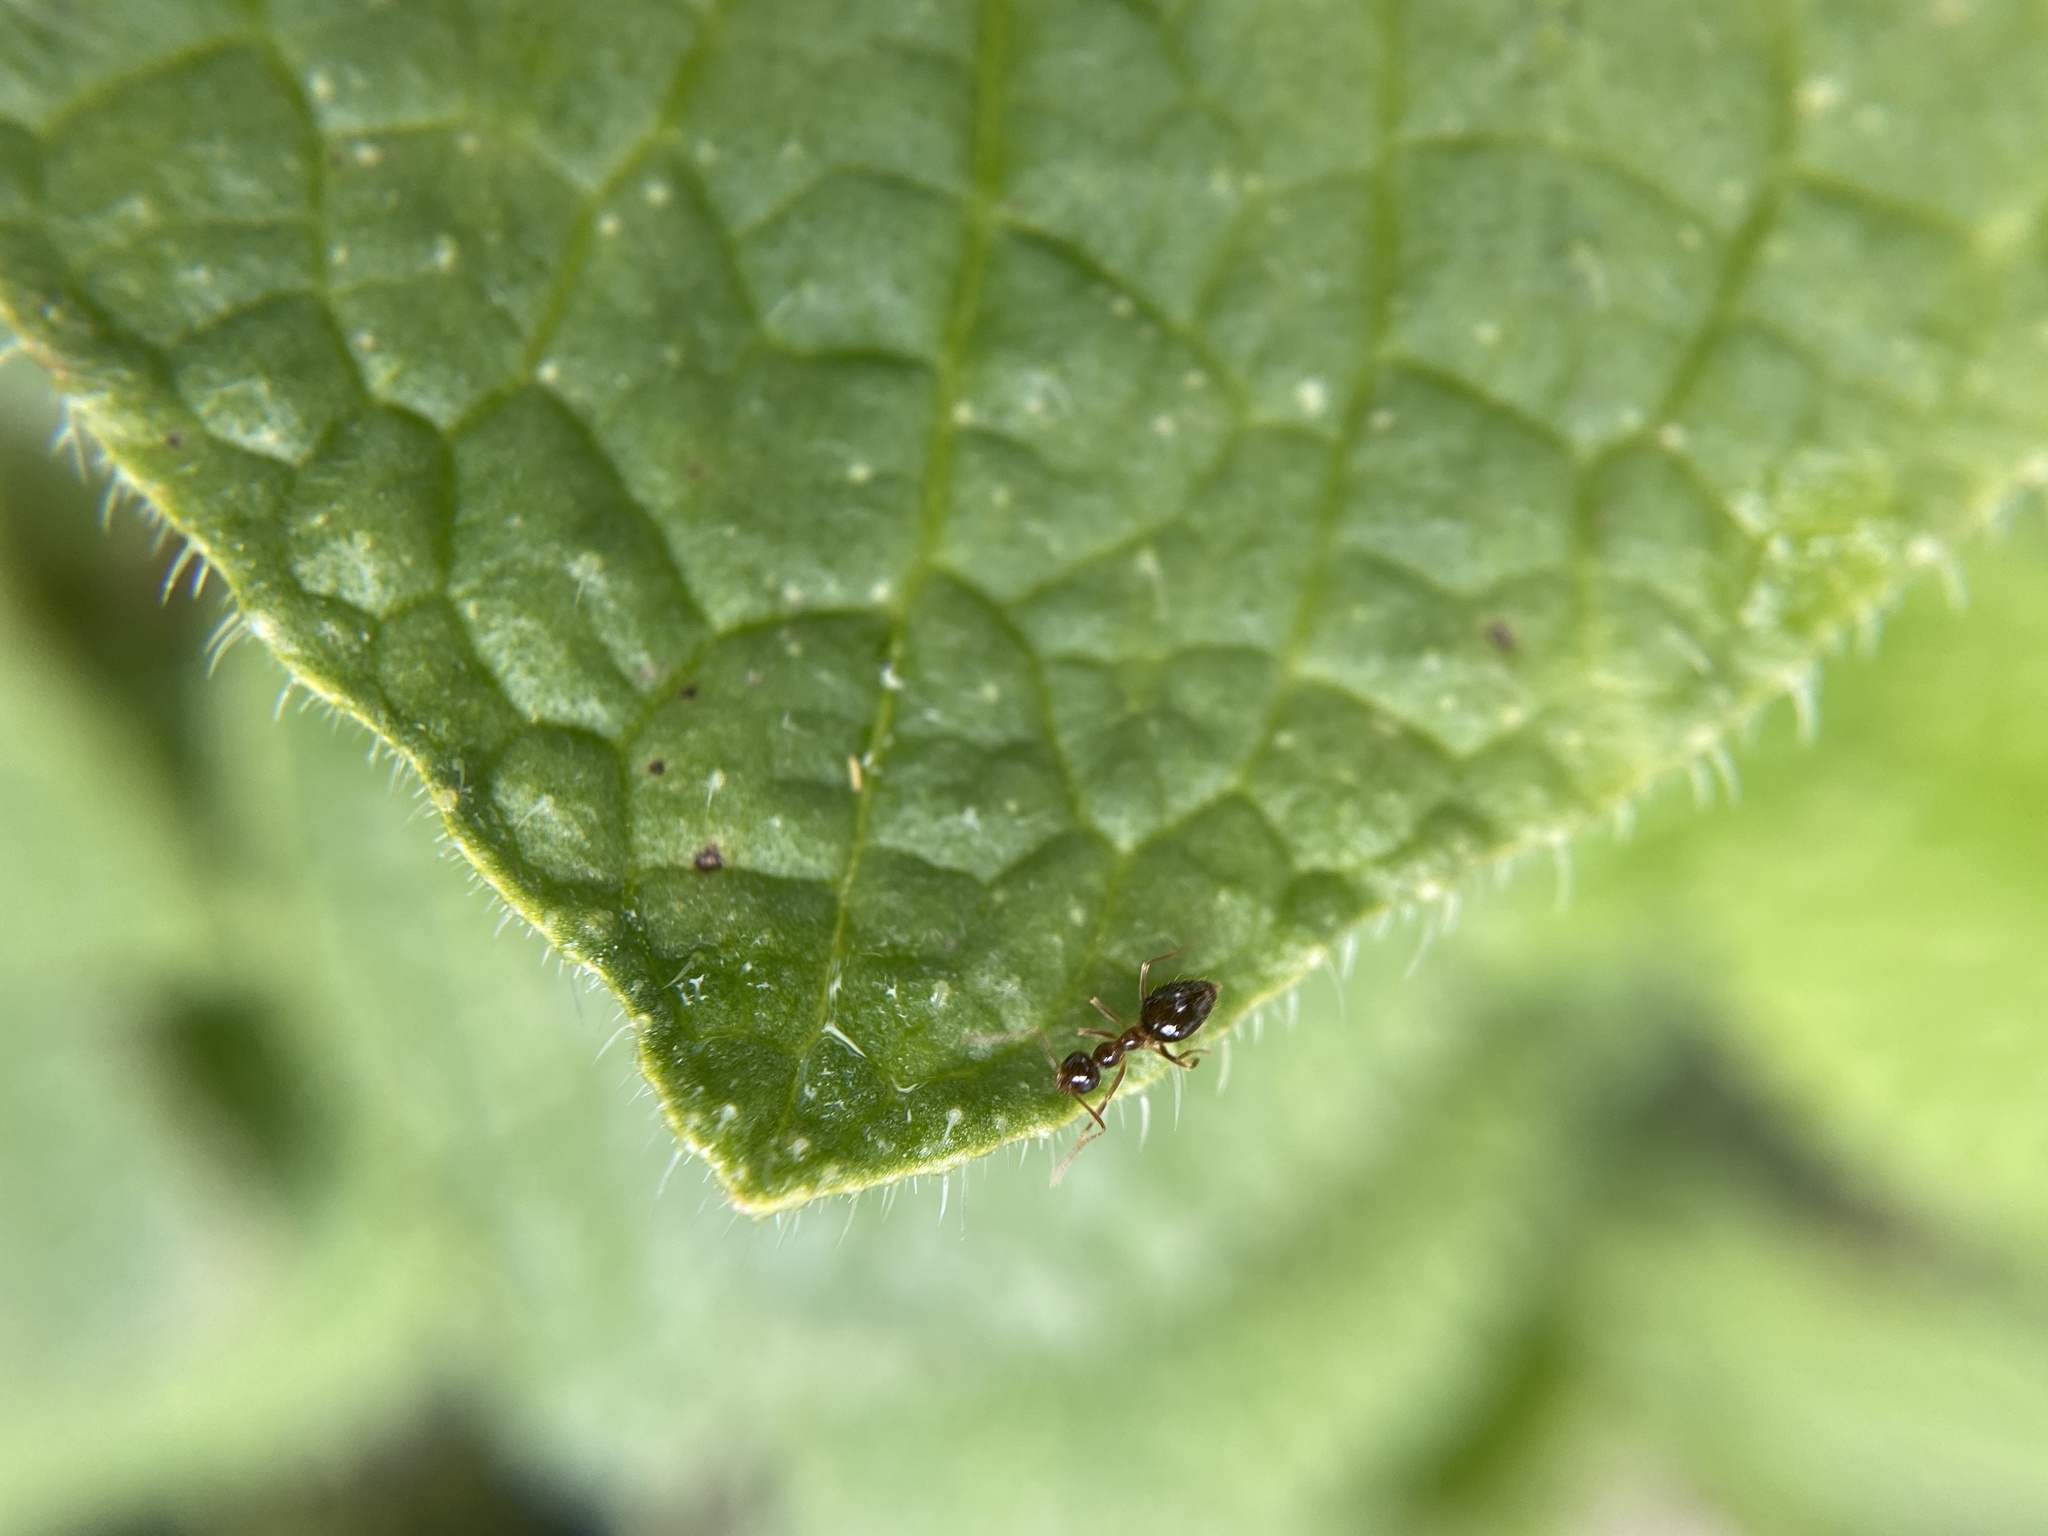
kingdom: Animalia
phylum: Arthropoda
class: Insecta
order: Hymenoptera
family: Formicidae
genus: Prenolepis
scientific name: Prenolepis imparis
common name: Small honey ant
